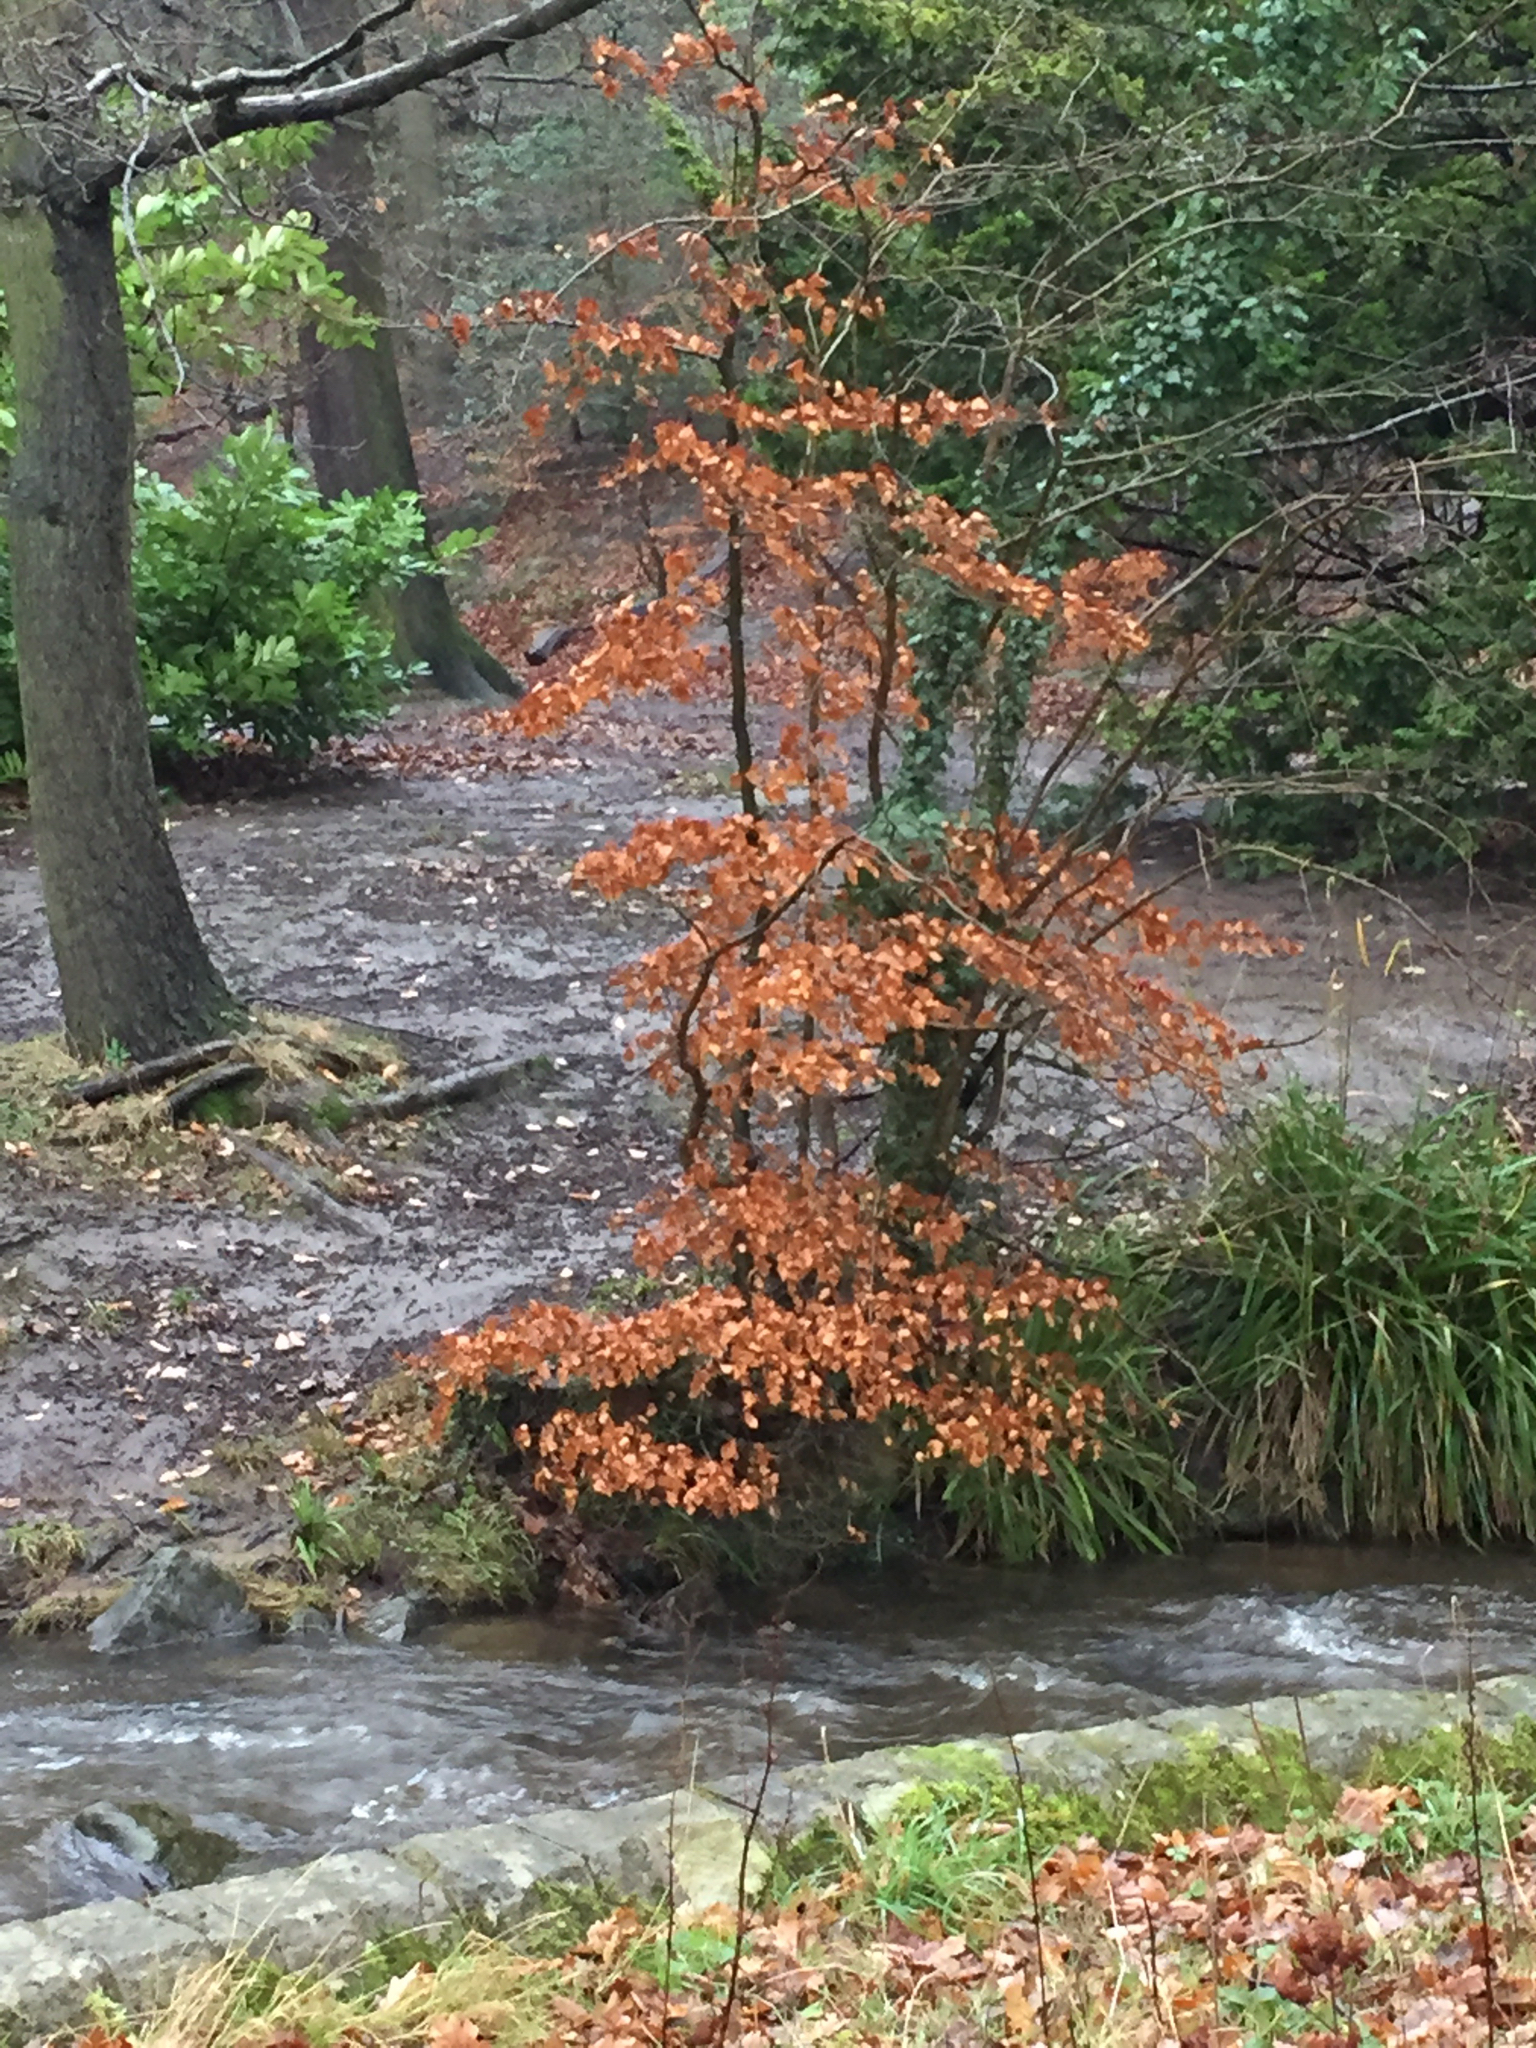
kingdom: Plantae
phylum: Tracheophyta
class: Magnoliopsida
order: Fagales
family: Fagaceae
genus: Fagus
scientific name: Fagus sylvatica
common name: Beech
